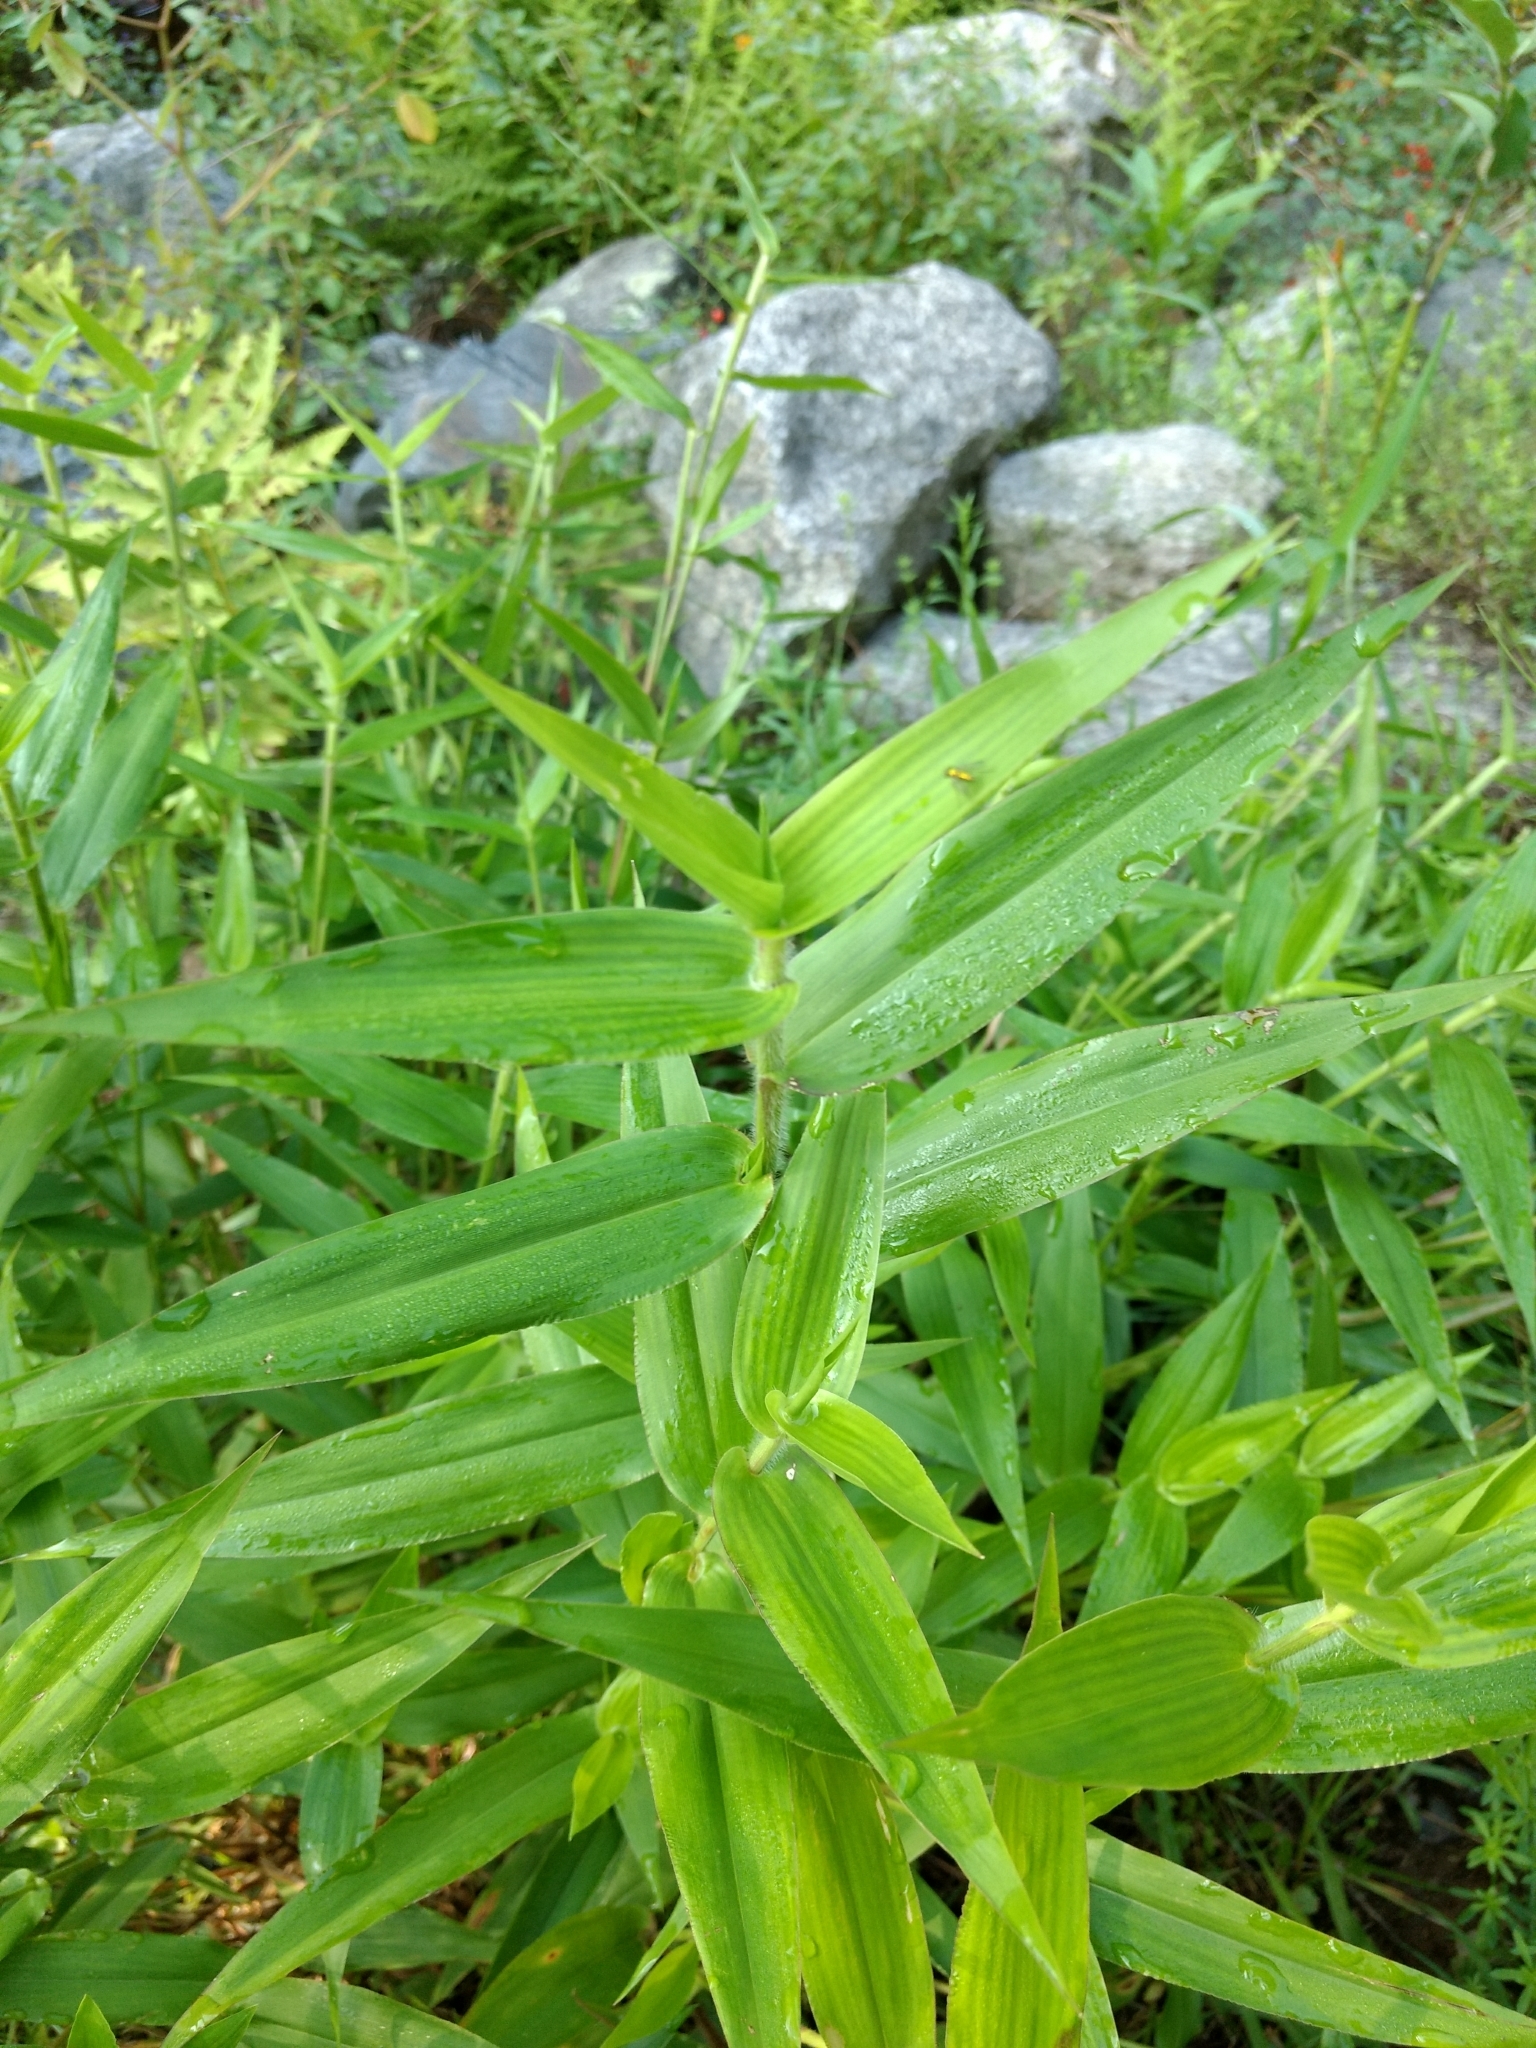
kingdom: Plantae
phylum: Tracheophyta
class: Liliopsida
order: Poales
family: Poaceae
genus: Dichanthelium
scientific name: Dichanthelium clandestinum
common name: Deer-tongue grass
